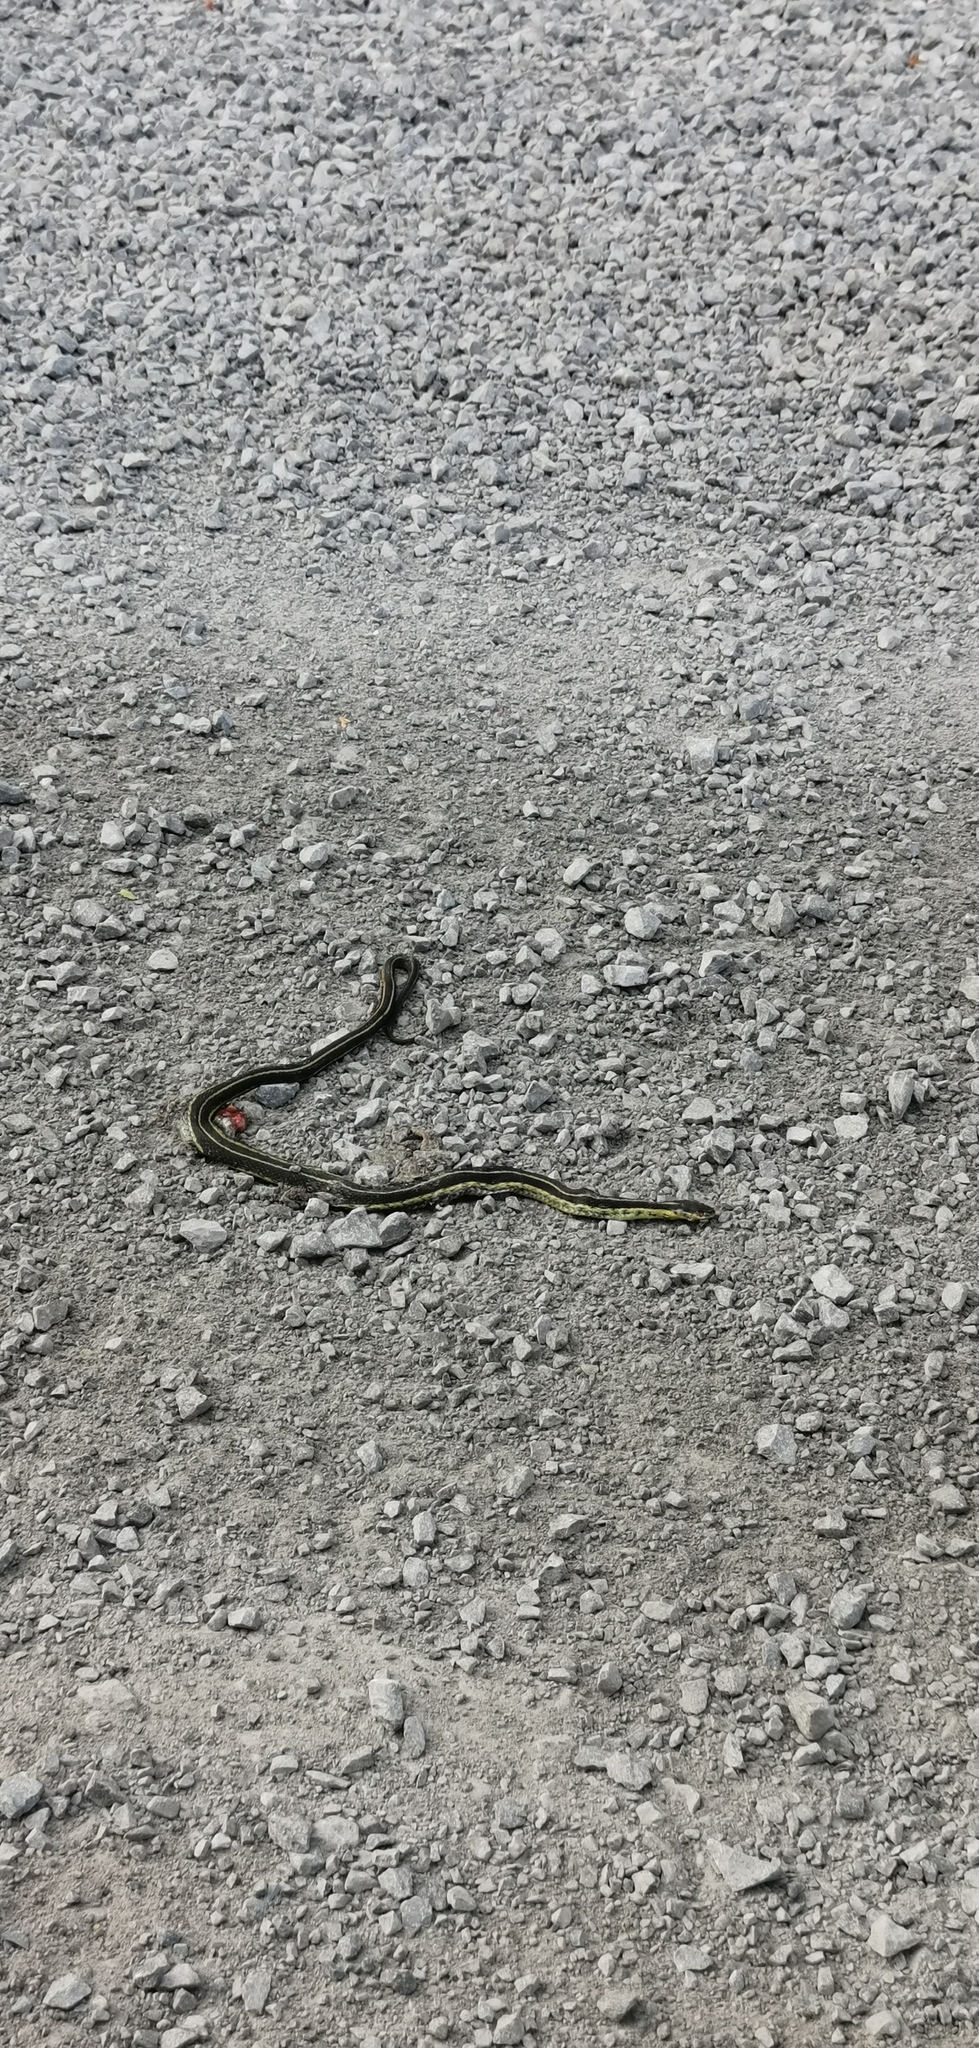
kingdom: Animalia
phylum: Chordata
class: Squamata
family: Colubridae
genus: Thamnophis
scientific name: Thamnophis sirtalis
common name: Common garter snake
